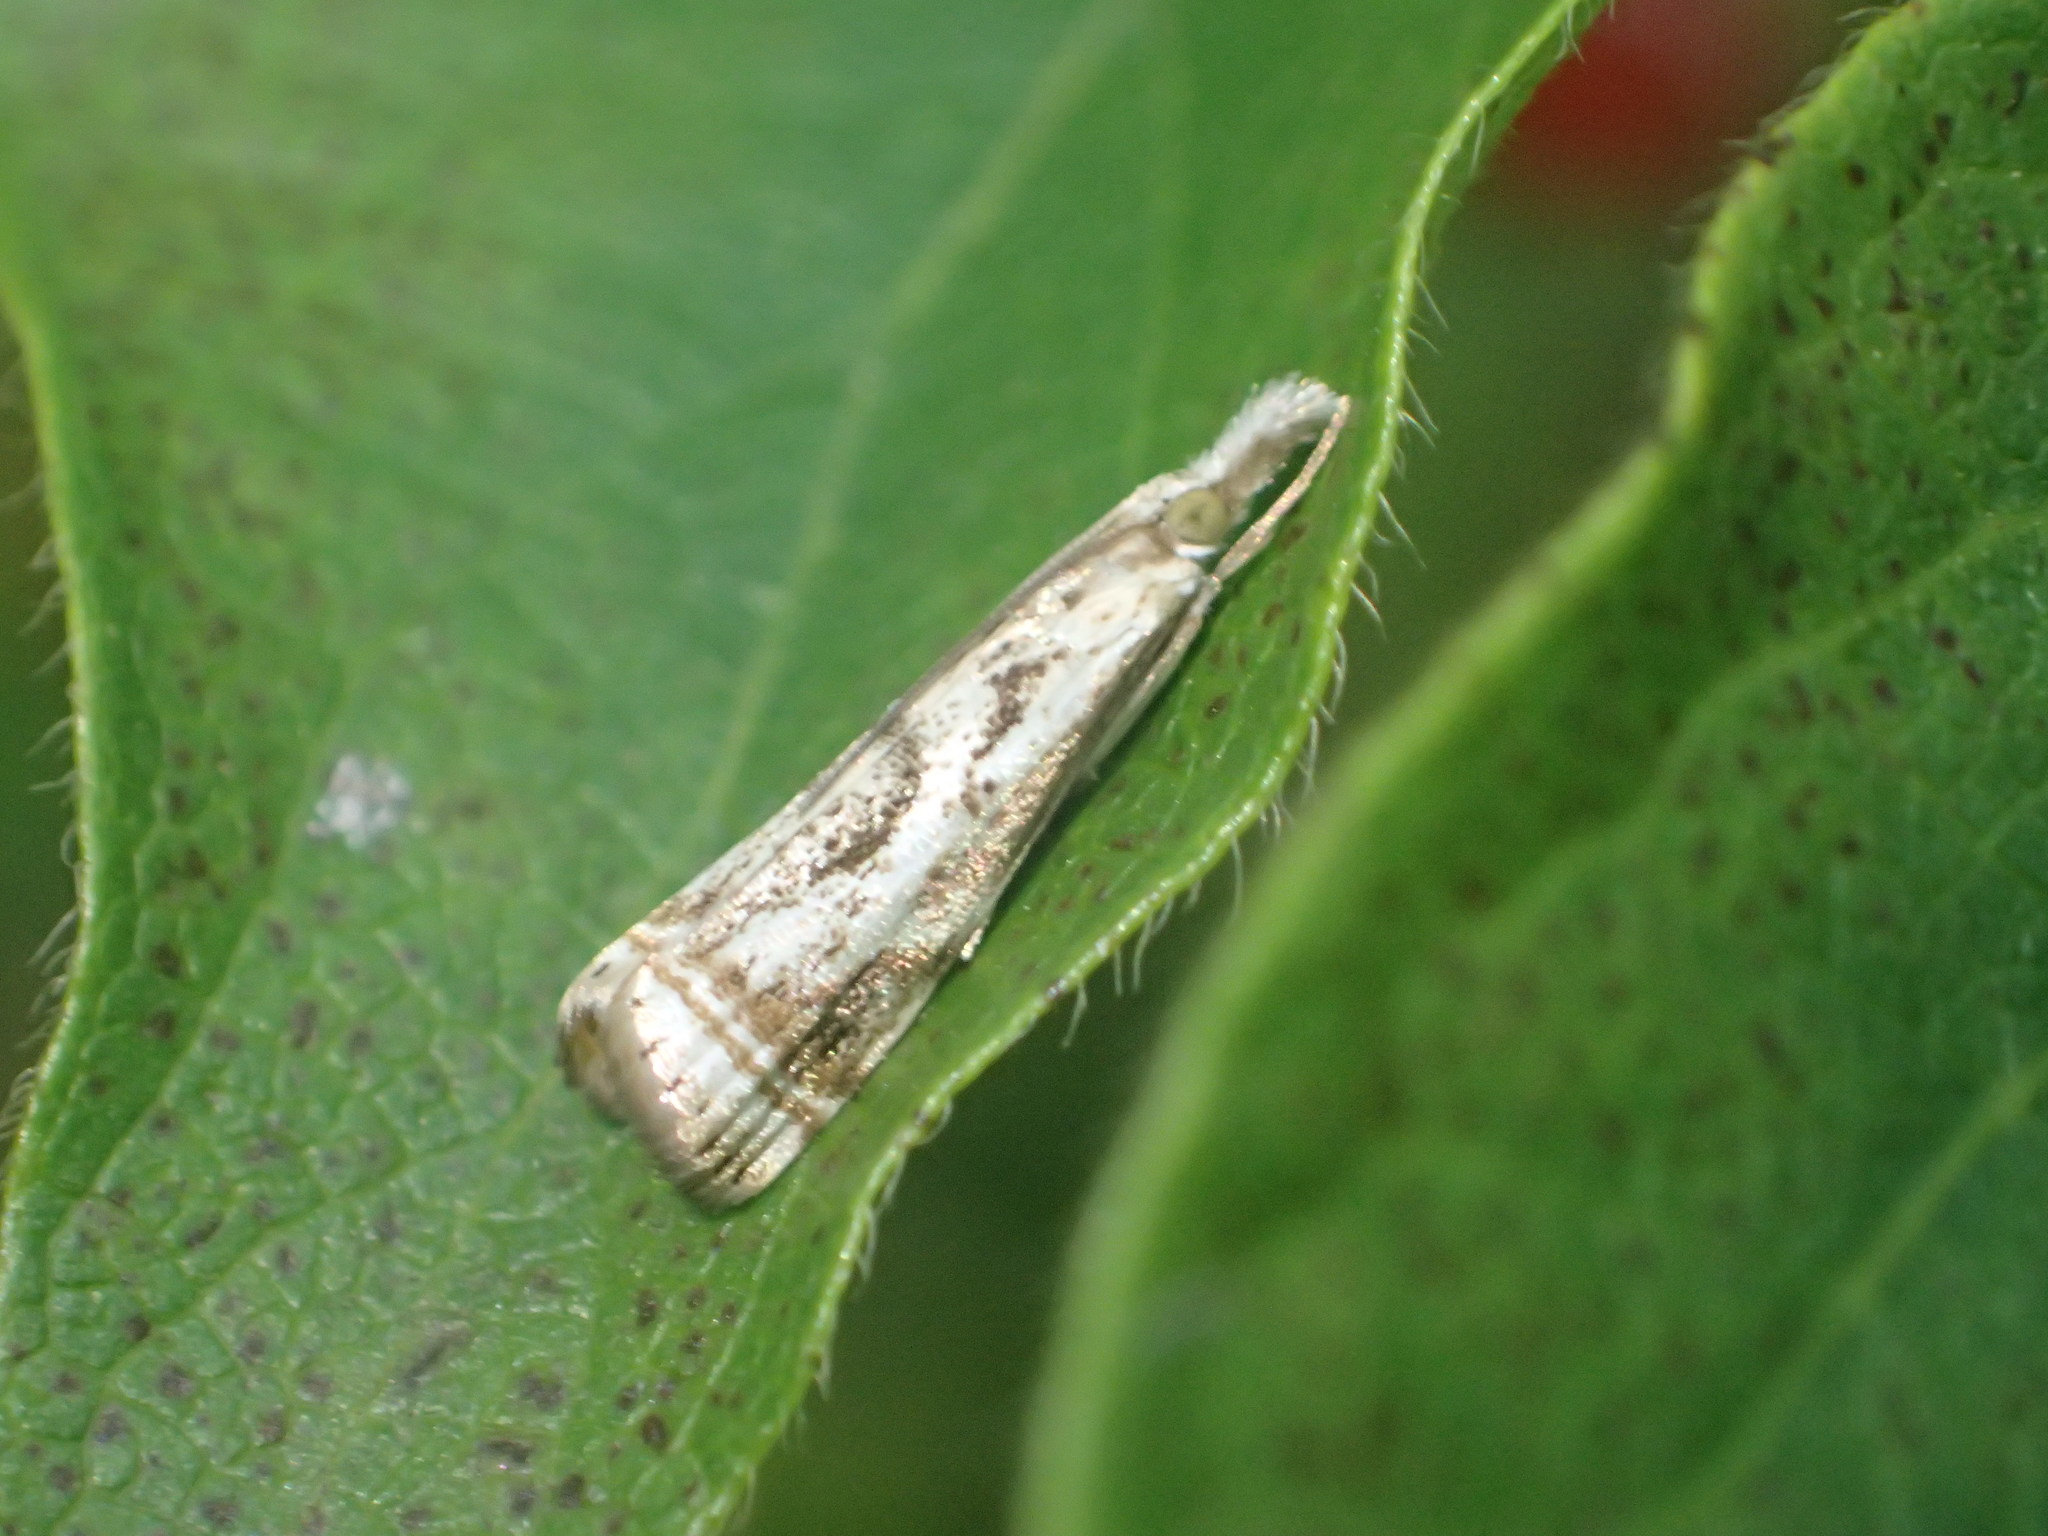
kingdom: Animalia
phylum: Arthropoda
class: Insecta
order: Lepidoptera
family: Crambidae
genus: Microcrambus
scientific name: Microcrambus elegans
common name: Elegant grass-veneer
